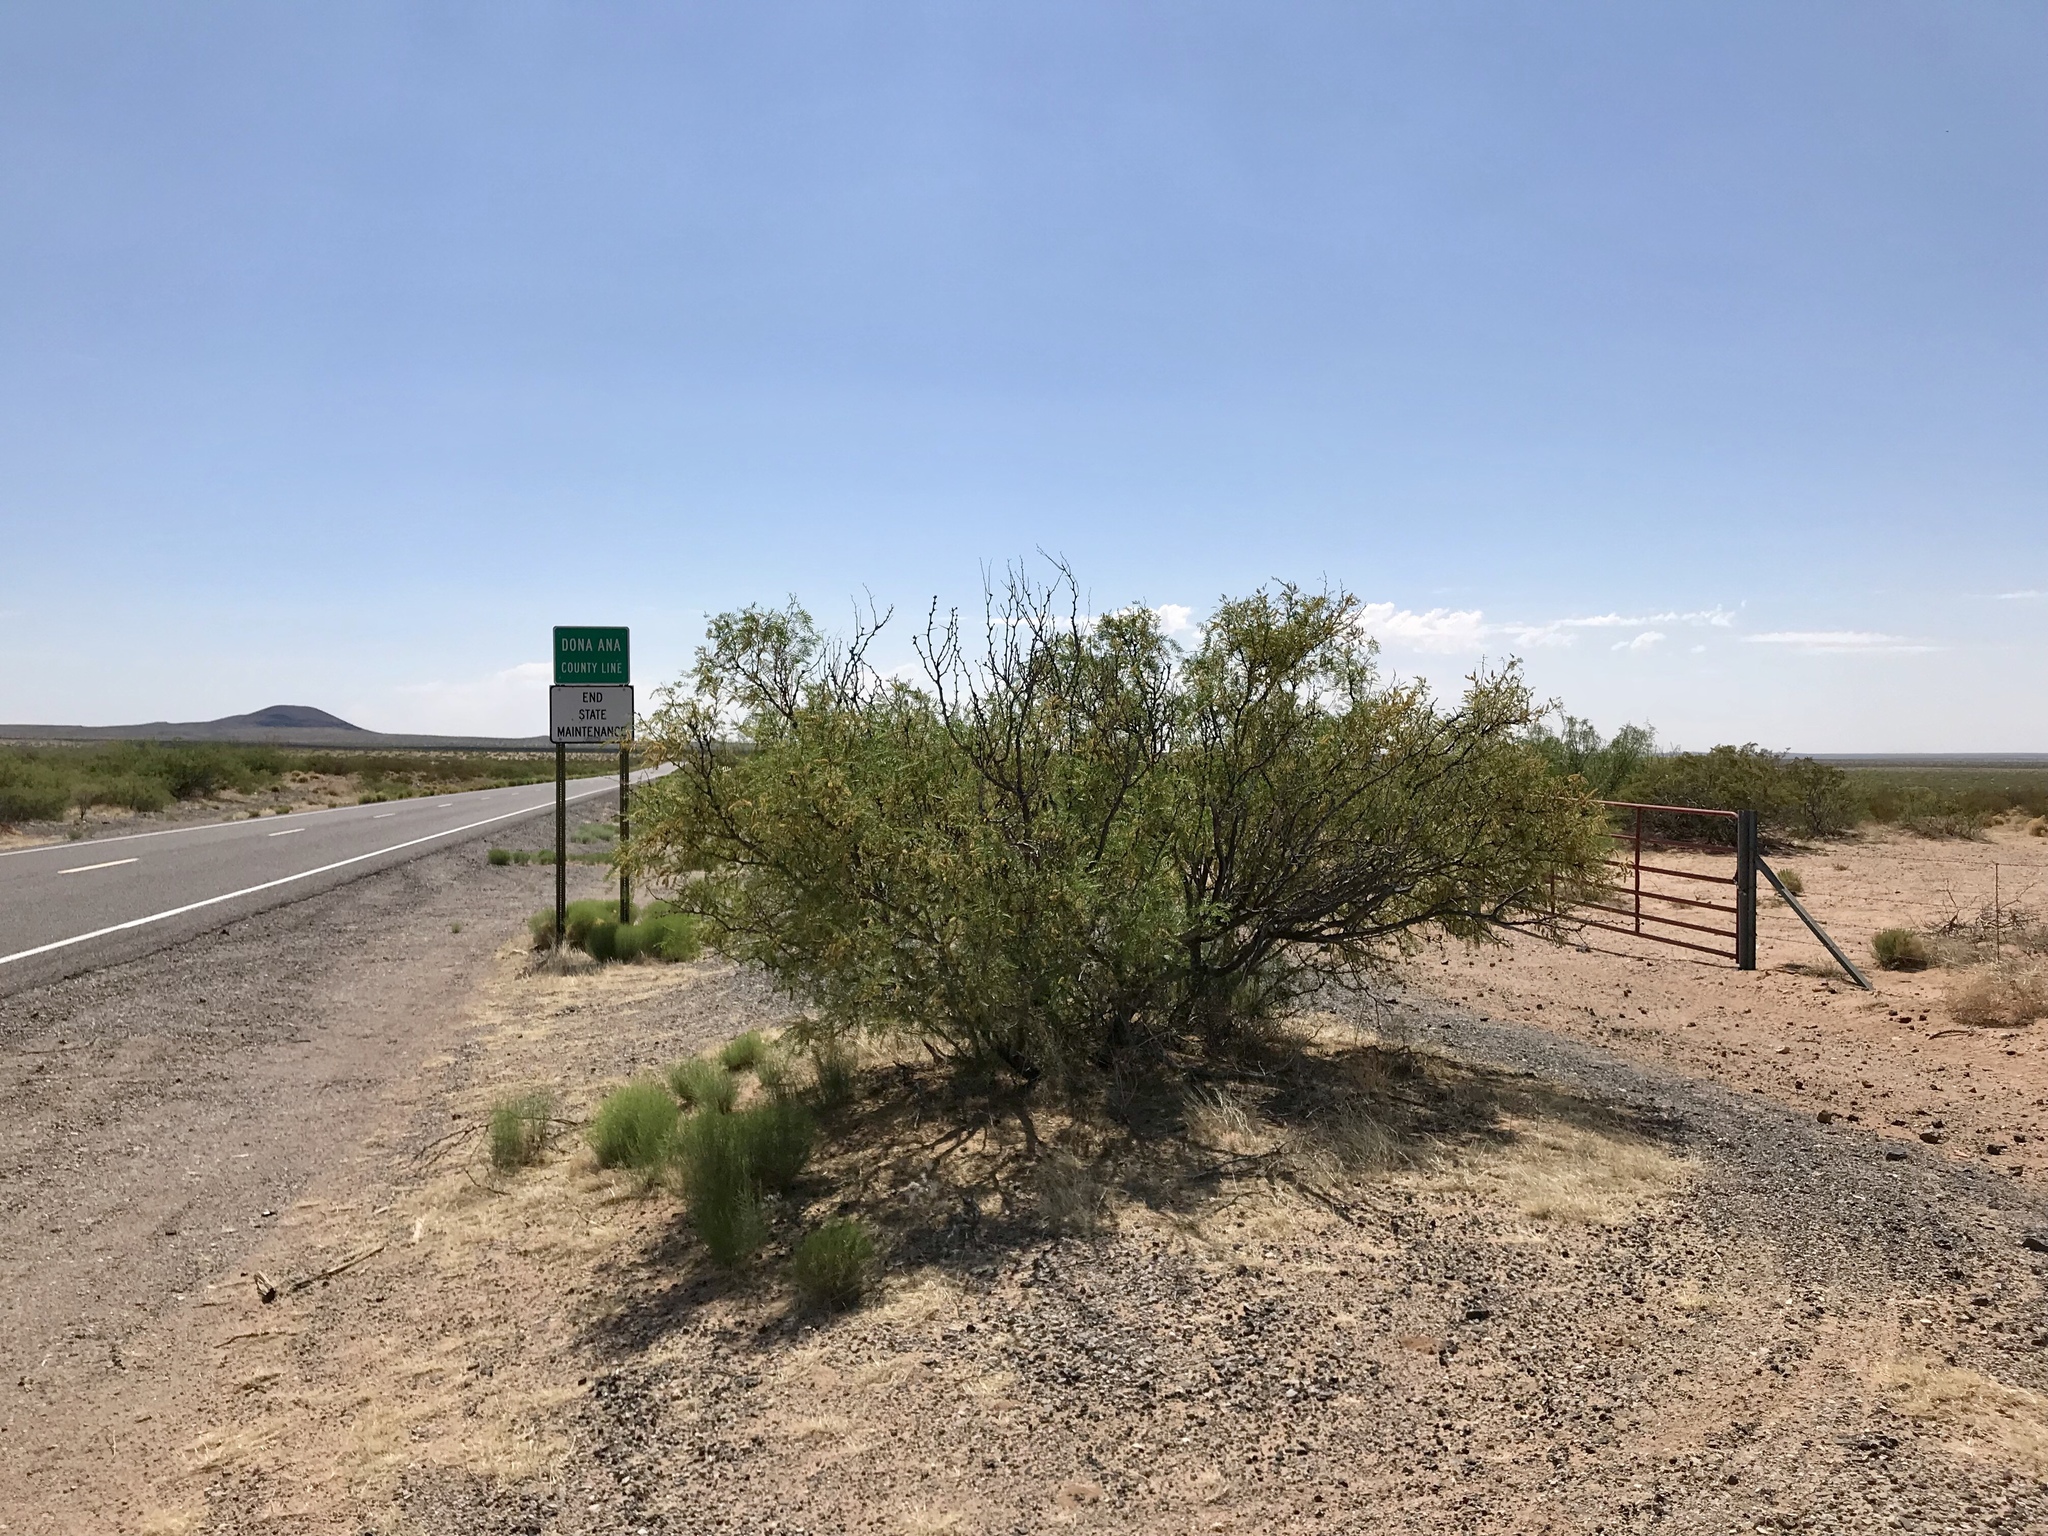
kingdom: Plantae
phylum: Tracheophyta
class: Magnoliopsida
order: Fabales
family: Fabaceae
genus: Prosopis
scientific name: Prosopis glandulosa
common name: Honey mesquite
